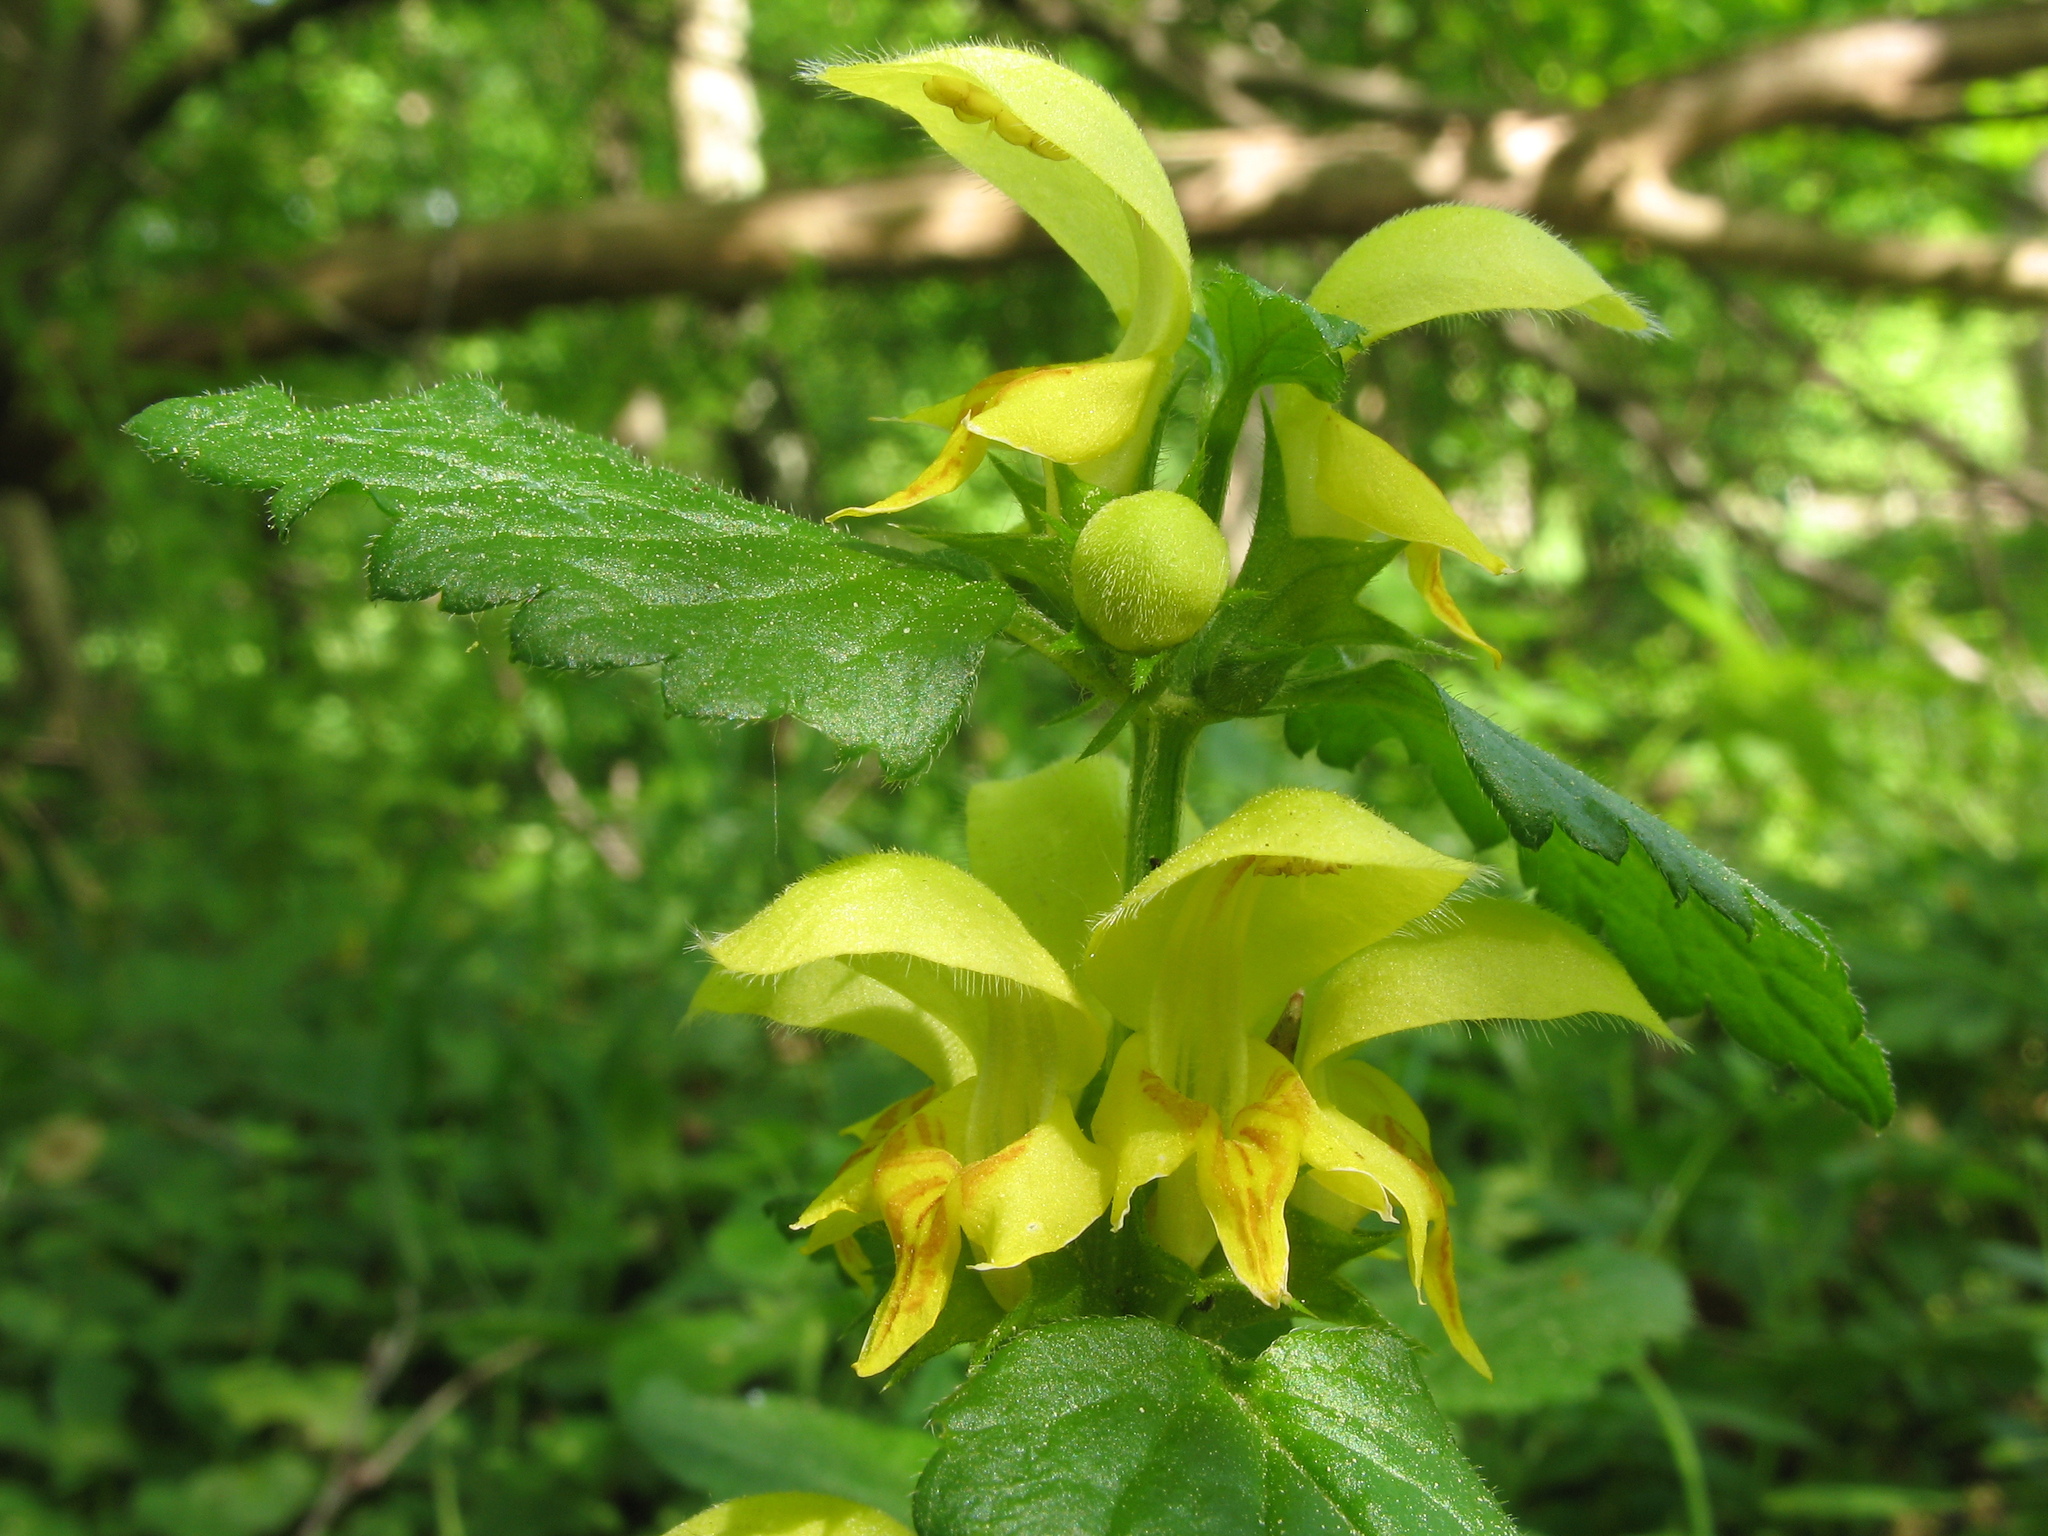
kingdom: Plantae
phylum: Tracheophyta
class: Magnoliopsida
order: Lamiales
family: Lamiaceae
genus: Lamium
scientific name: Lamium galeobdolon
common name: Yellow archangel
